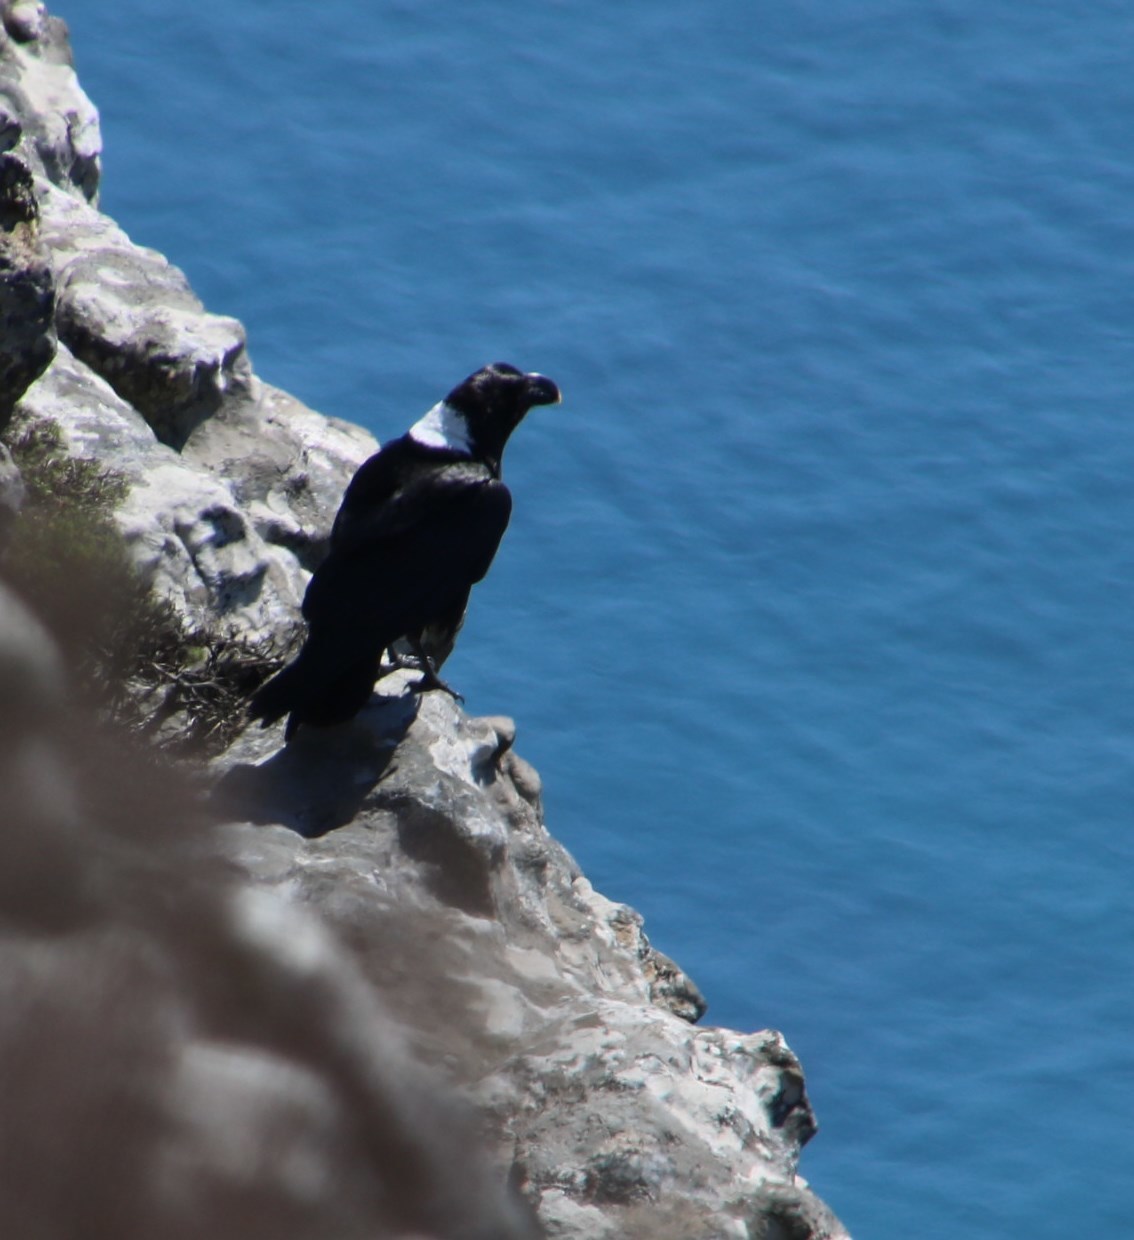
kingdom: Animalia
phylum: Chordata
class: Aves
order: Passeriformes
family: Corvidae
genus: Corvus
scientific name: Corvus albicollis
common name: White-necked raven
